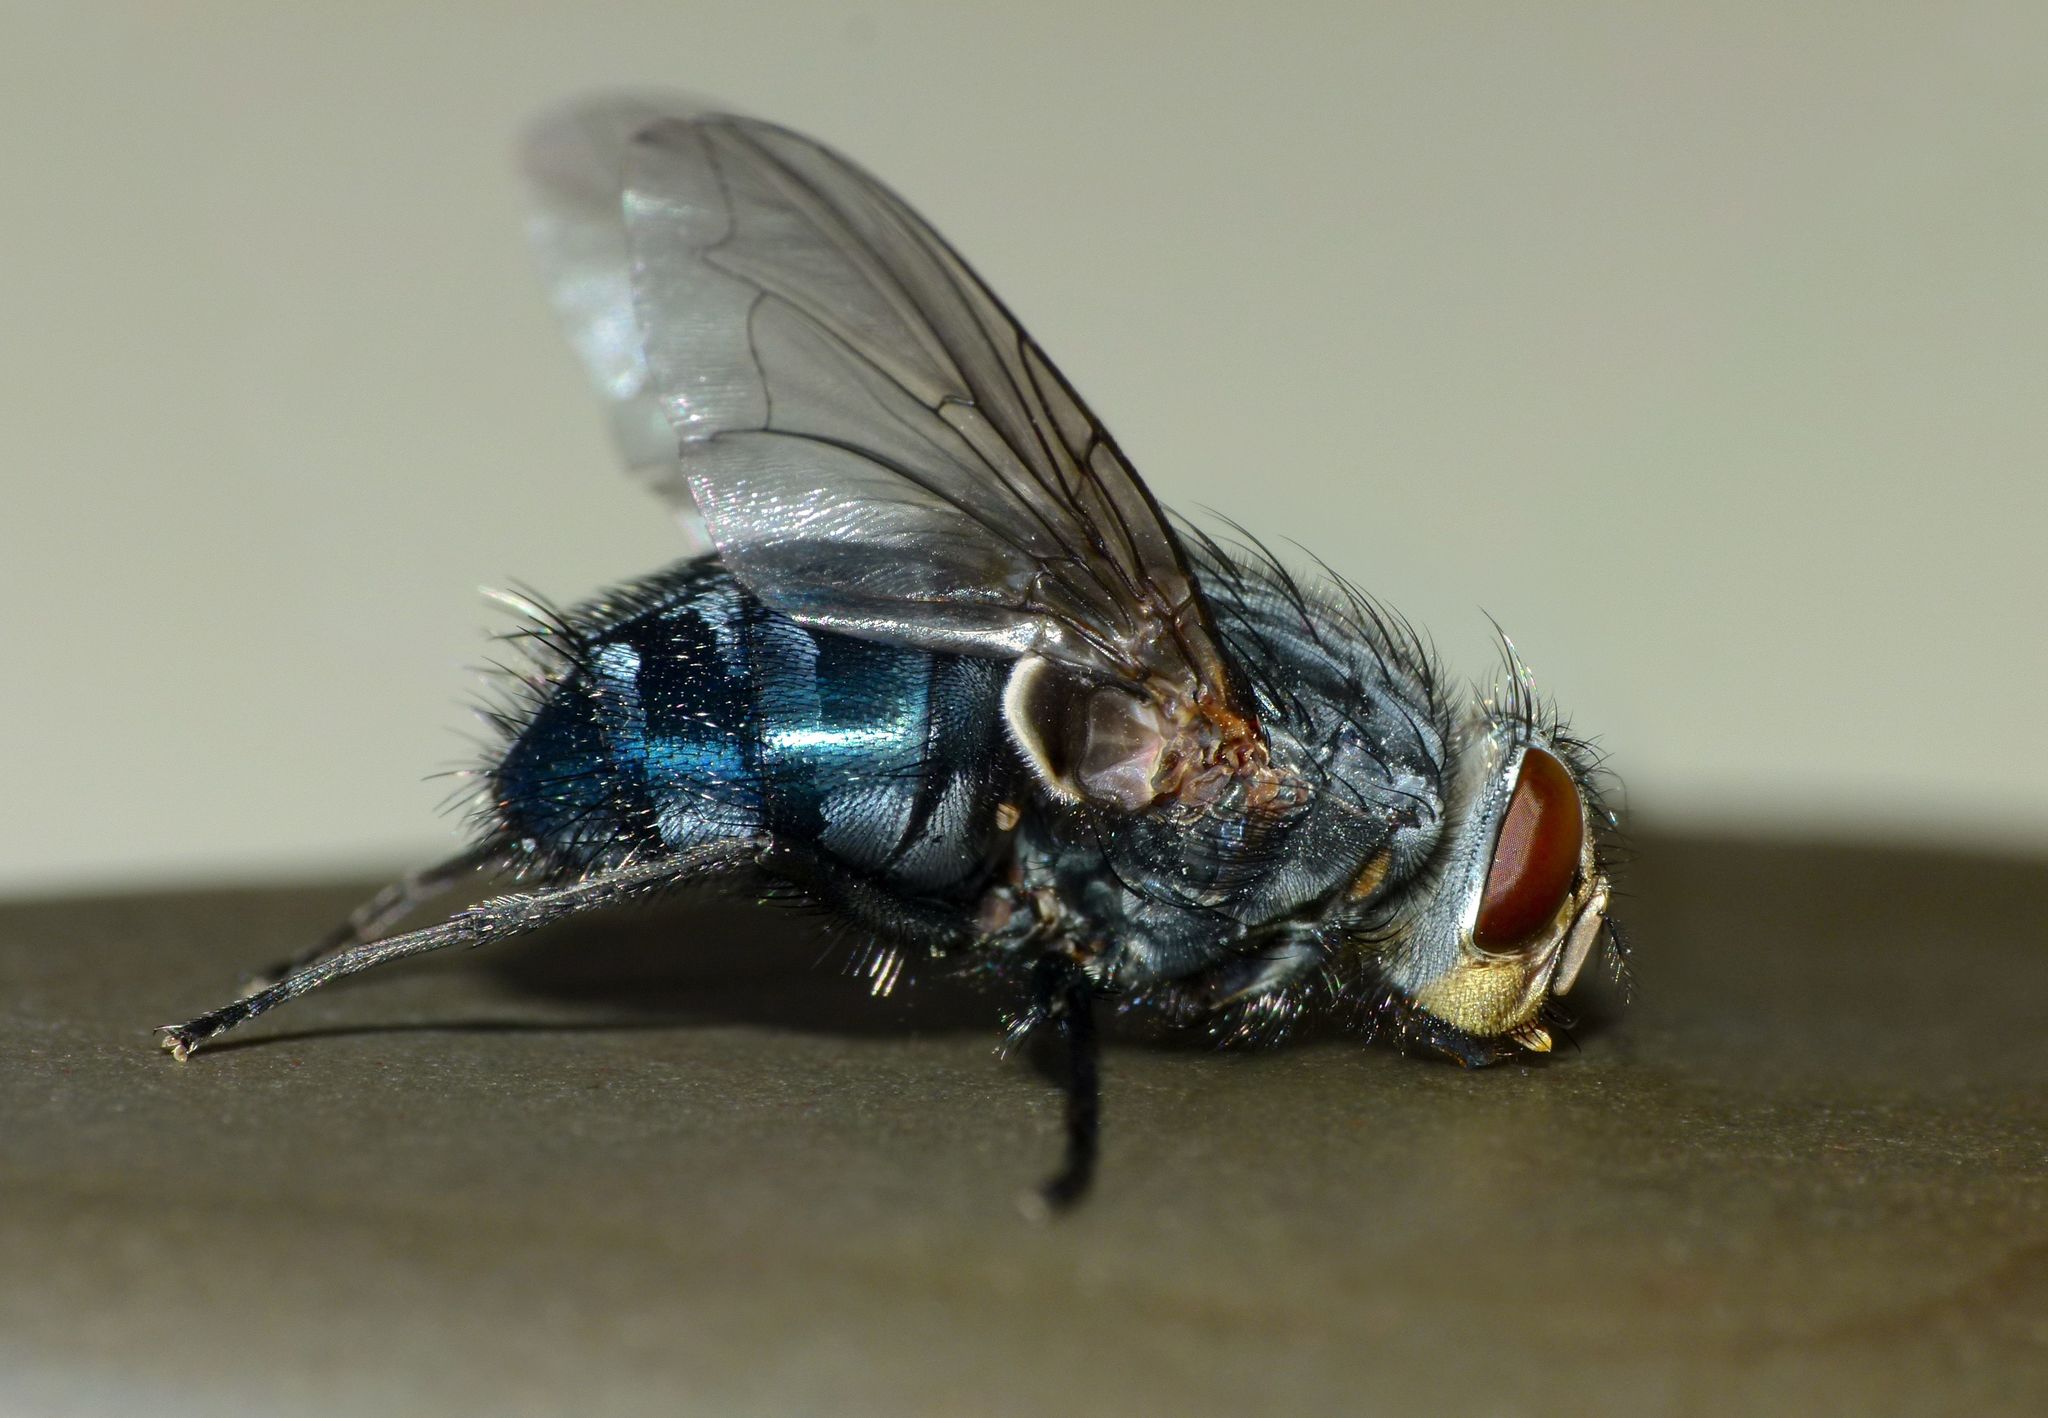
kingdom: Animalia
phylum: Arthropoda
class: Insecta
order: Diptera
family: Calliphoridae
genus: Calliphora
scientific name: Calliphora vicina
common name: Common blow flie
